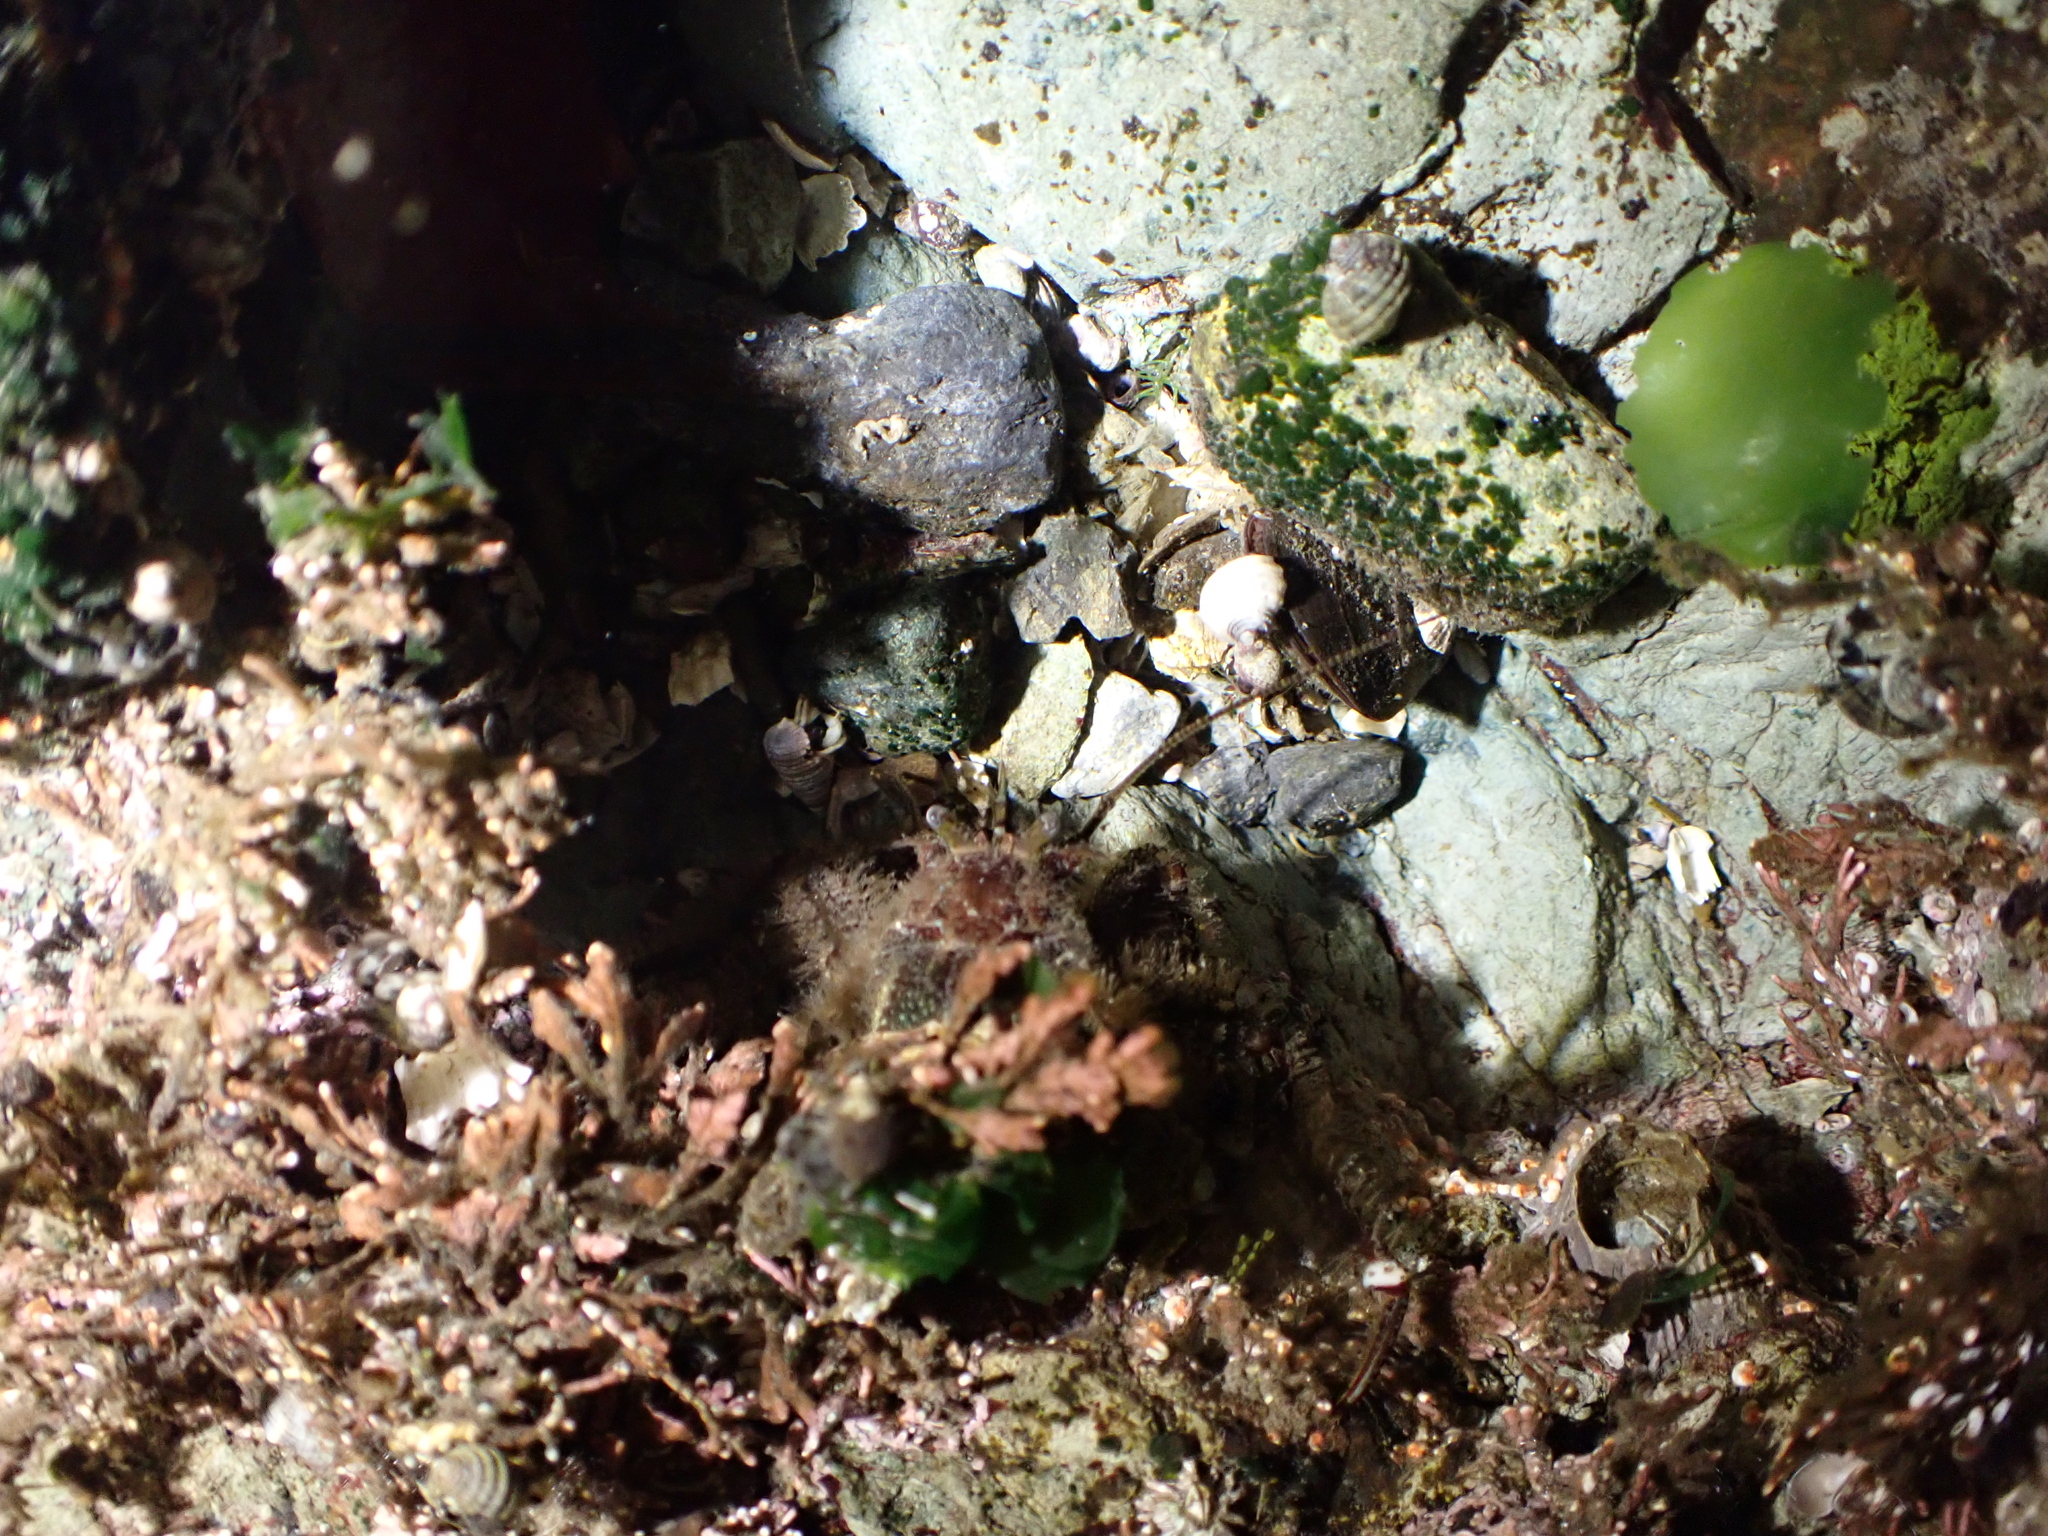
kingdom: Animalia
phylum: Arthropoda
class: Malacostraca
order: Decapoda
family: Paguridae
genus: Pagurus
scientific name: Pagurus hirsutiusculus
